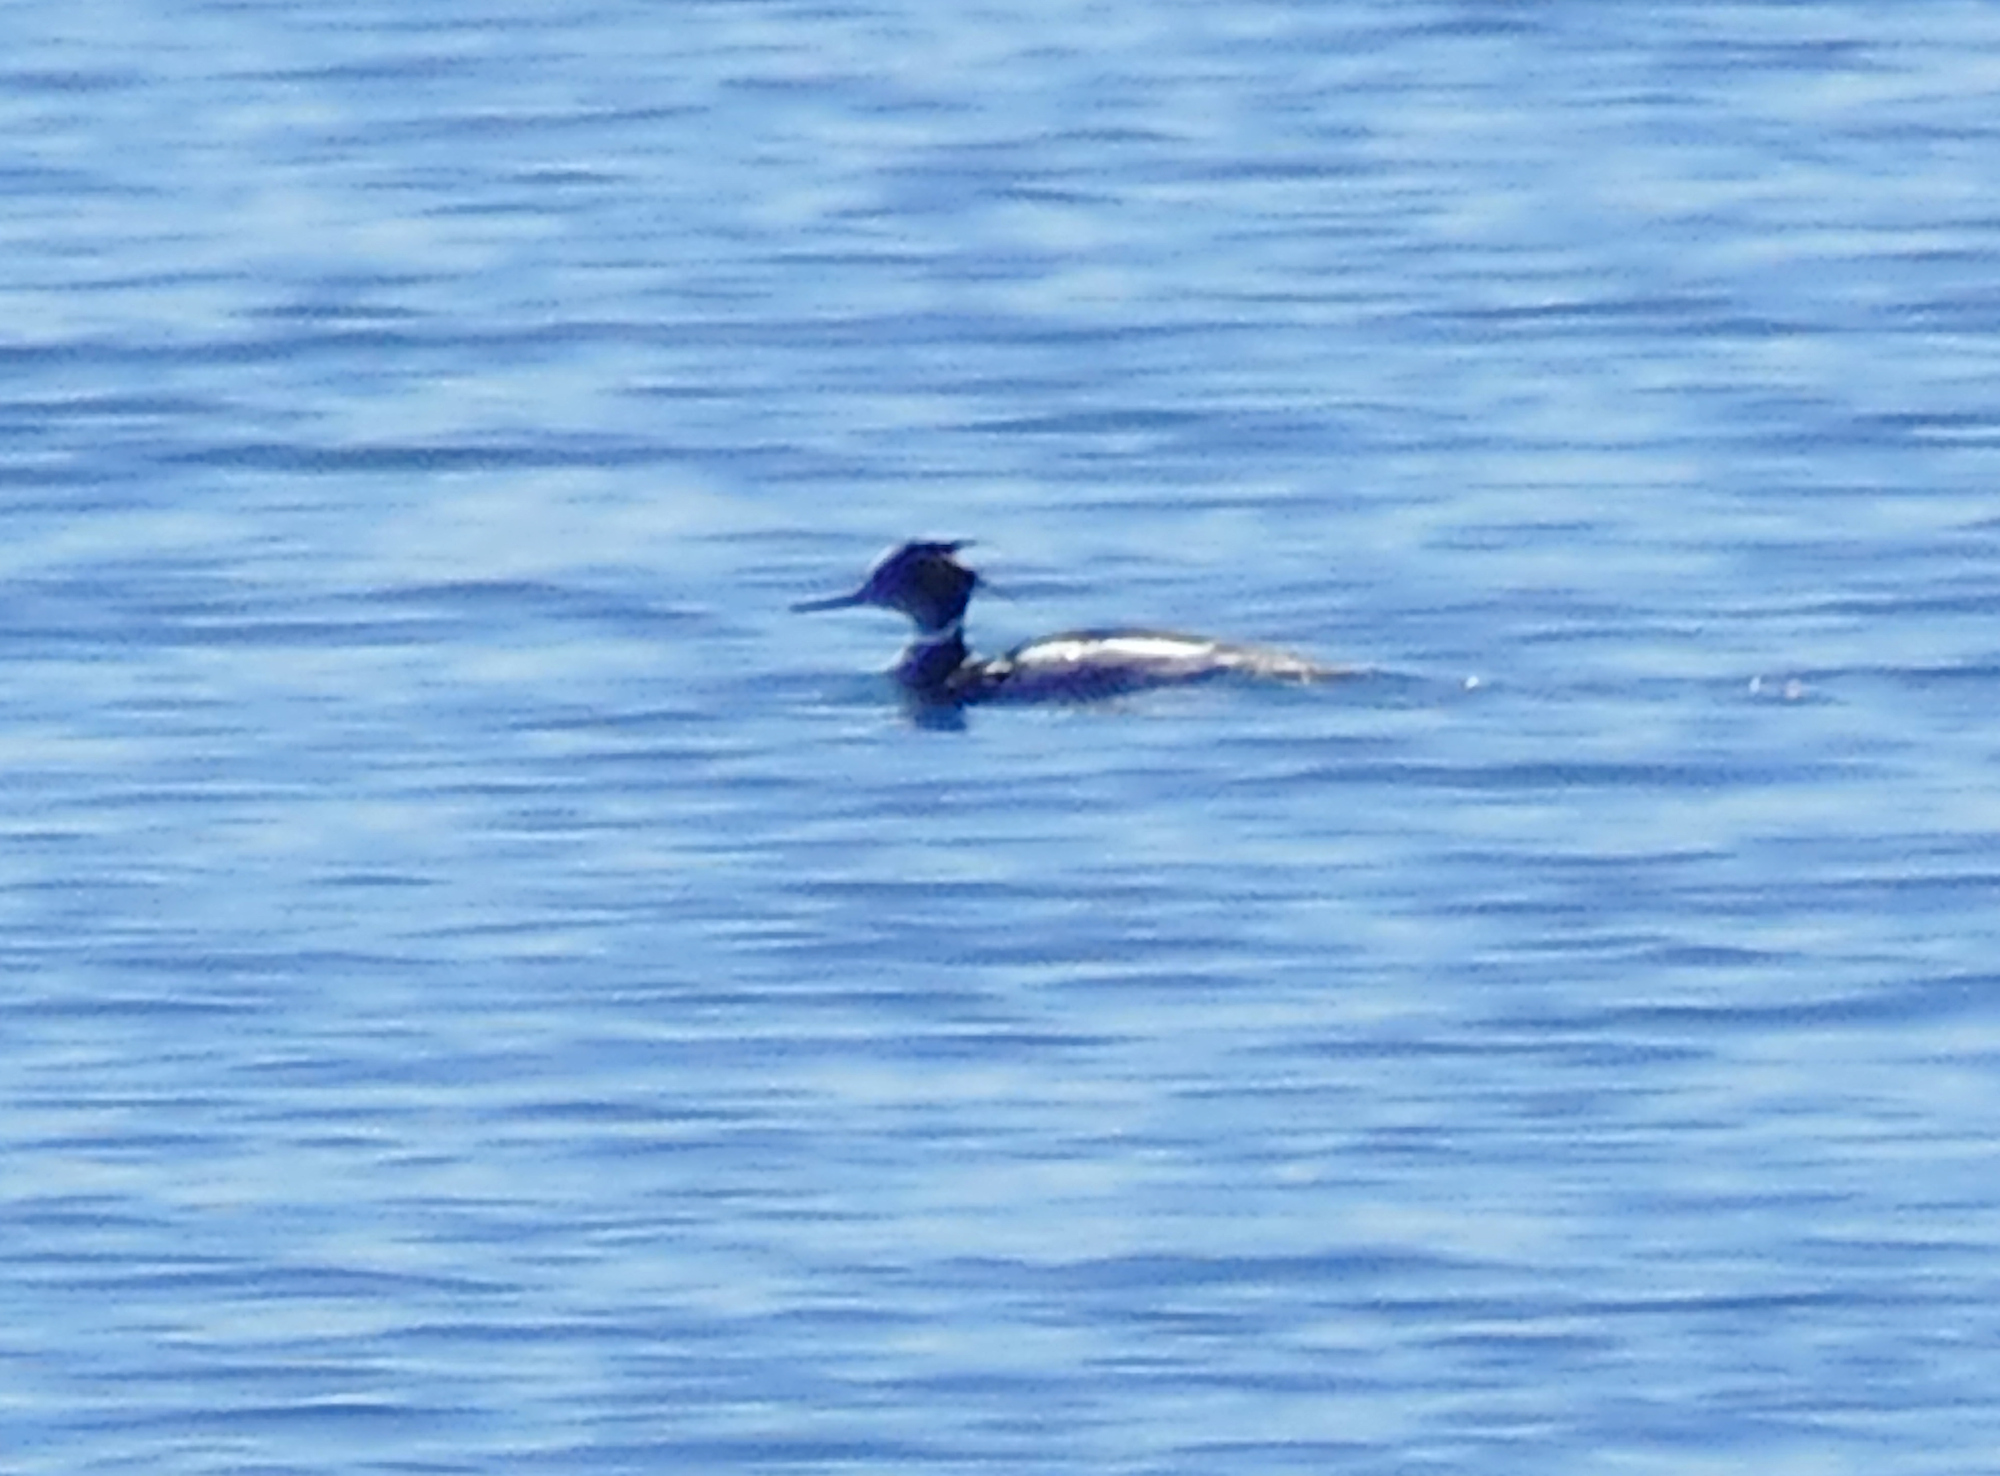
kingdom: Animalia
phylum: Chordata
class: Aves
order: Anseriformes
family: Anatidae
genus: Mergus
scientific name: Mergus serrator
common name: Red-breasted merganser
